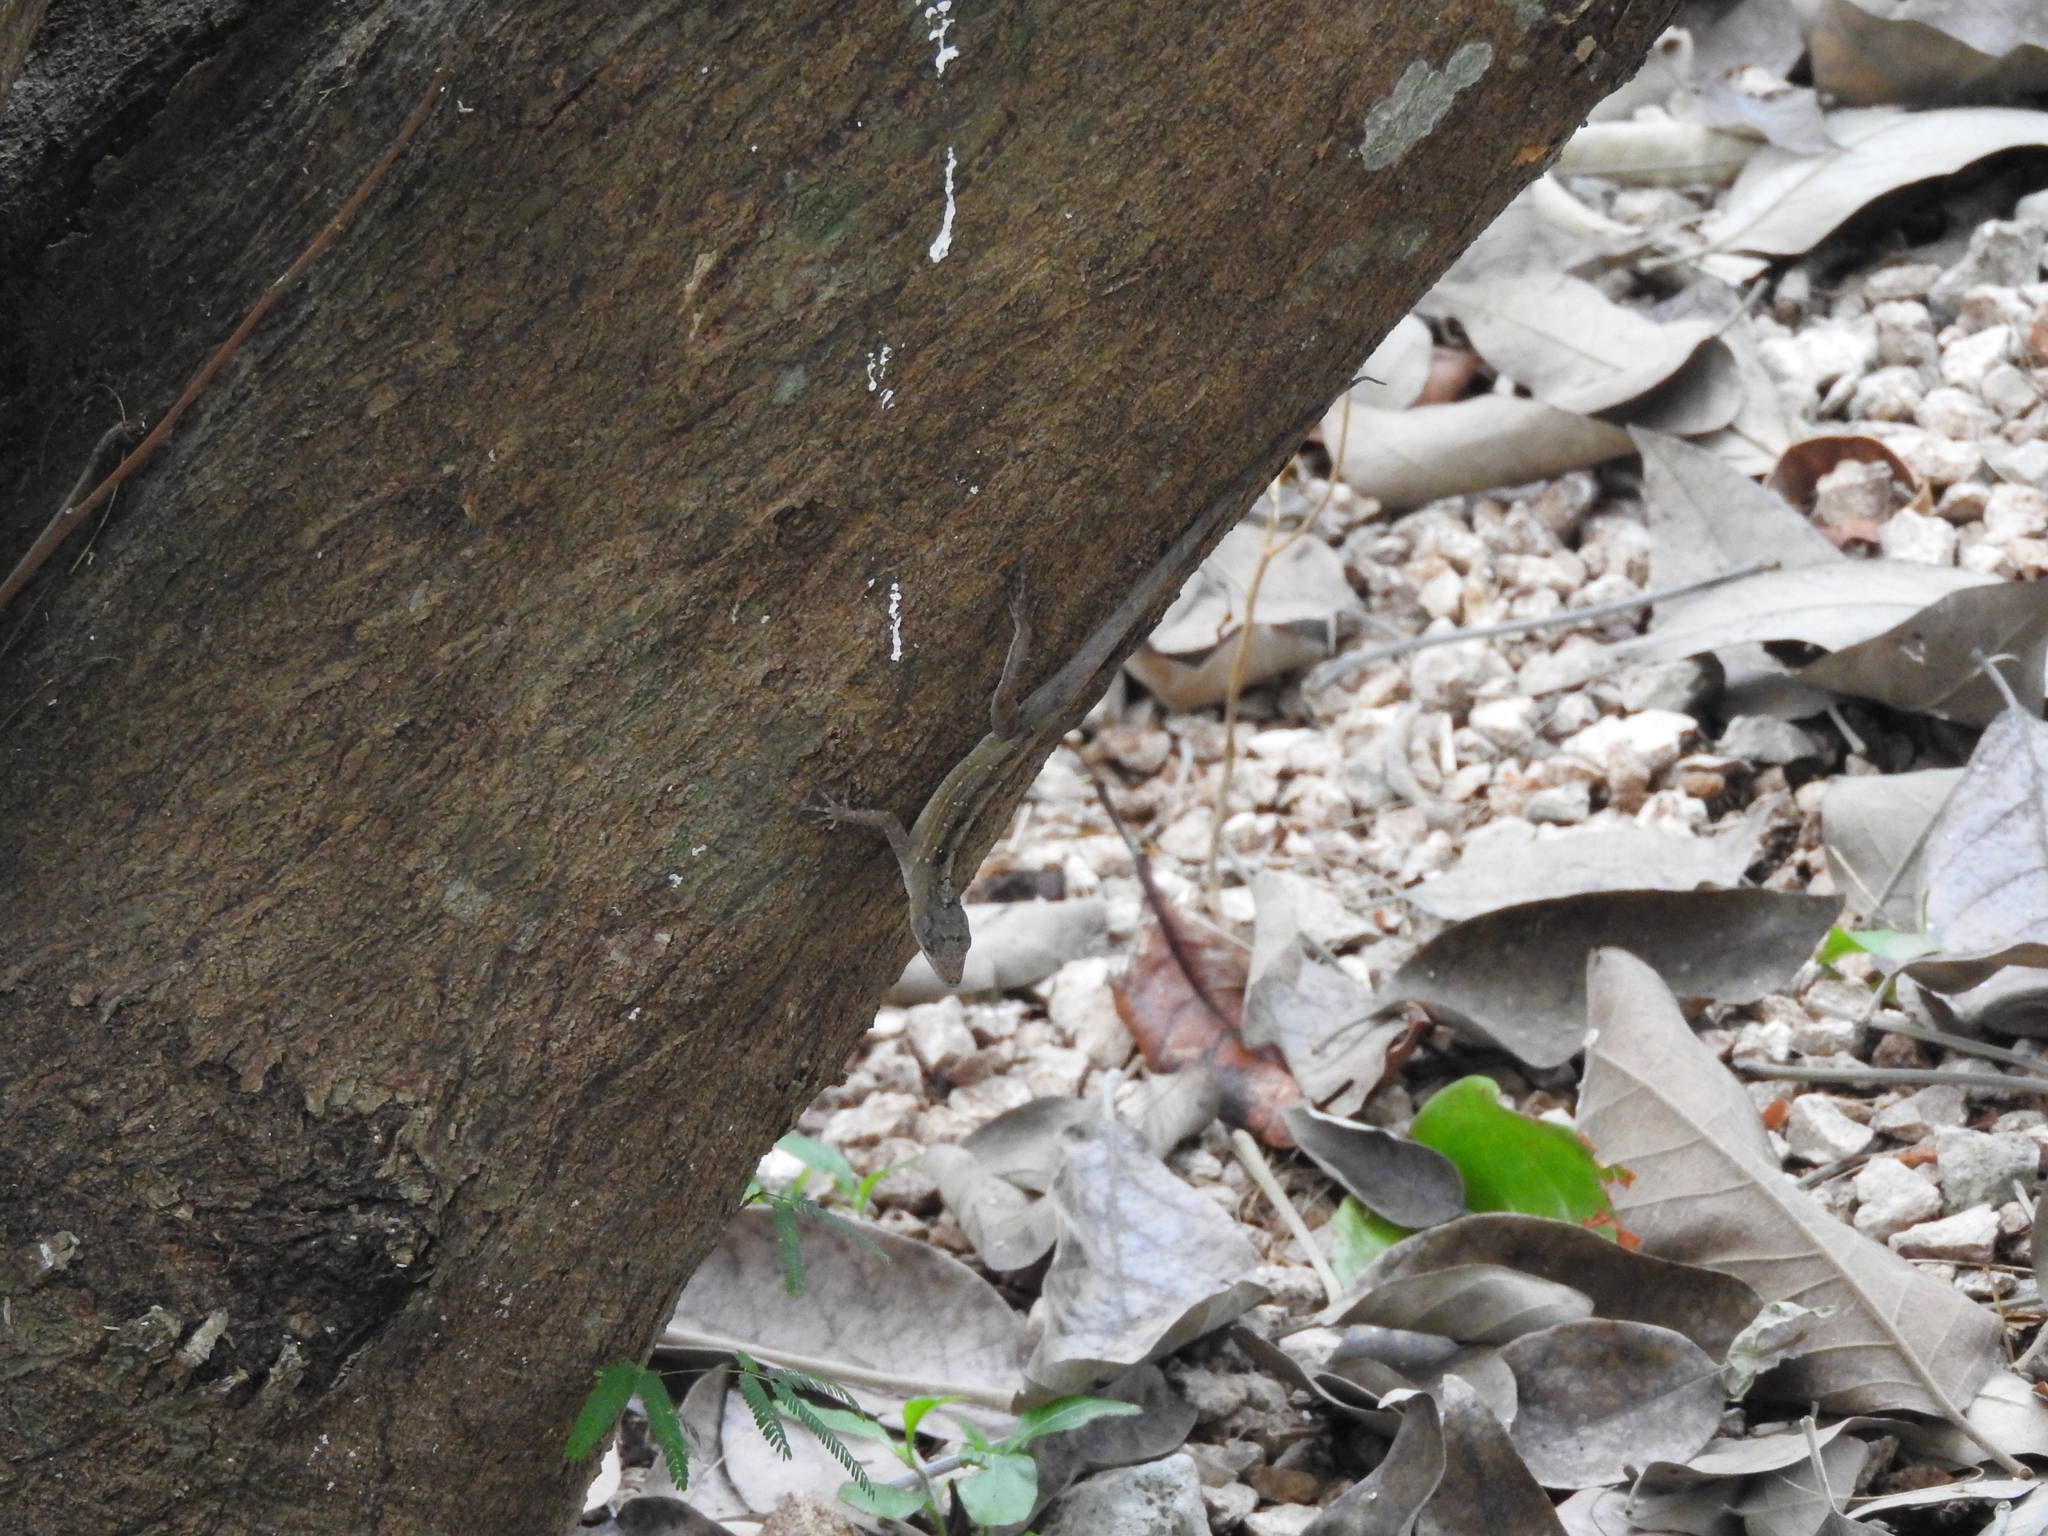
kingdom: Animalia
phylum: Chordata
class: Squamata
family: Dactyloidae
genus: Anolis
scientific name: Anolis sagrei
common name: Brown anole
